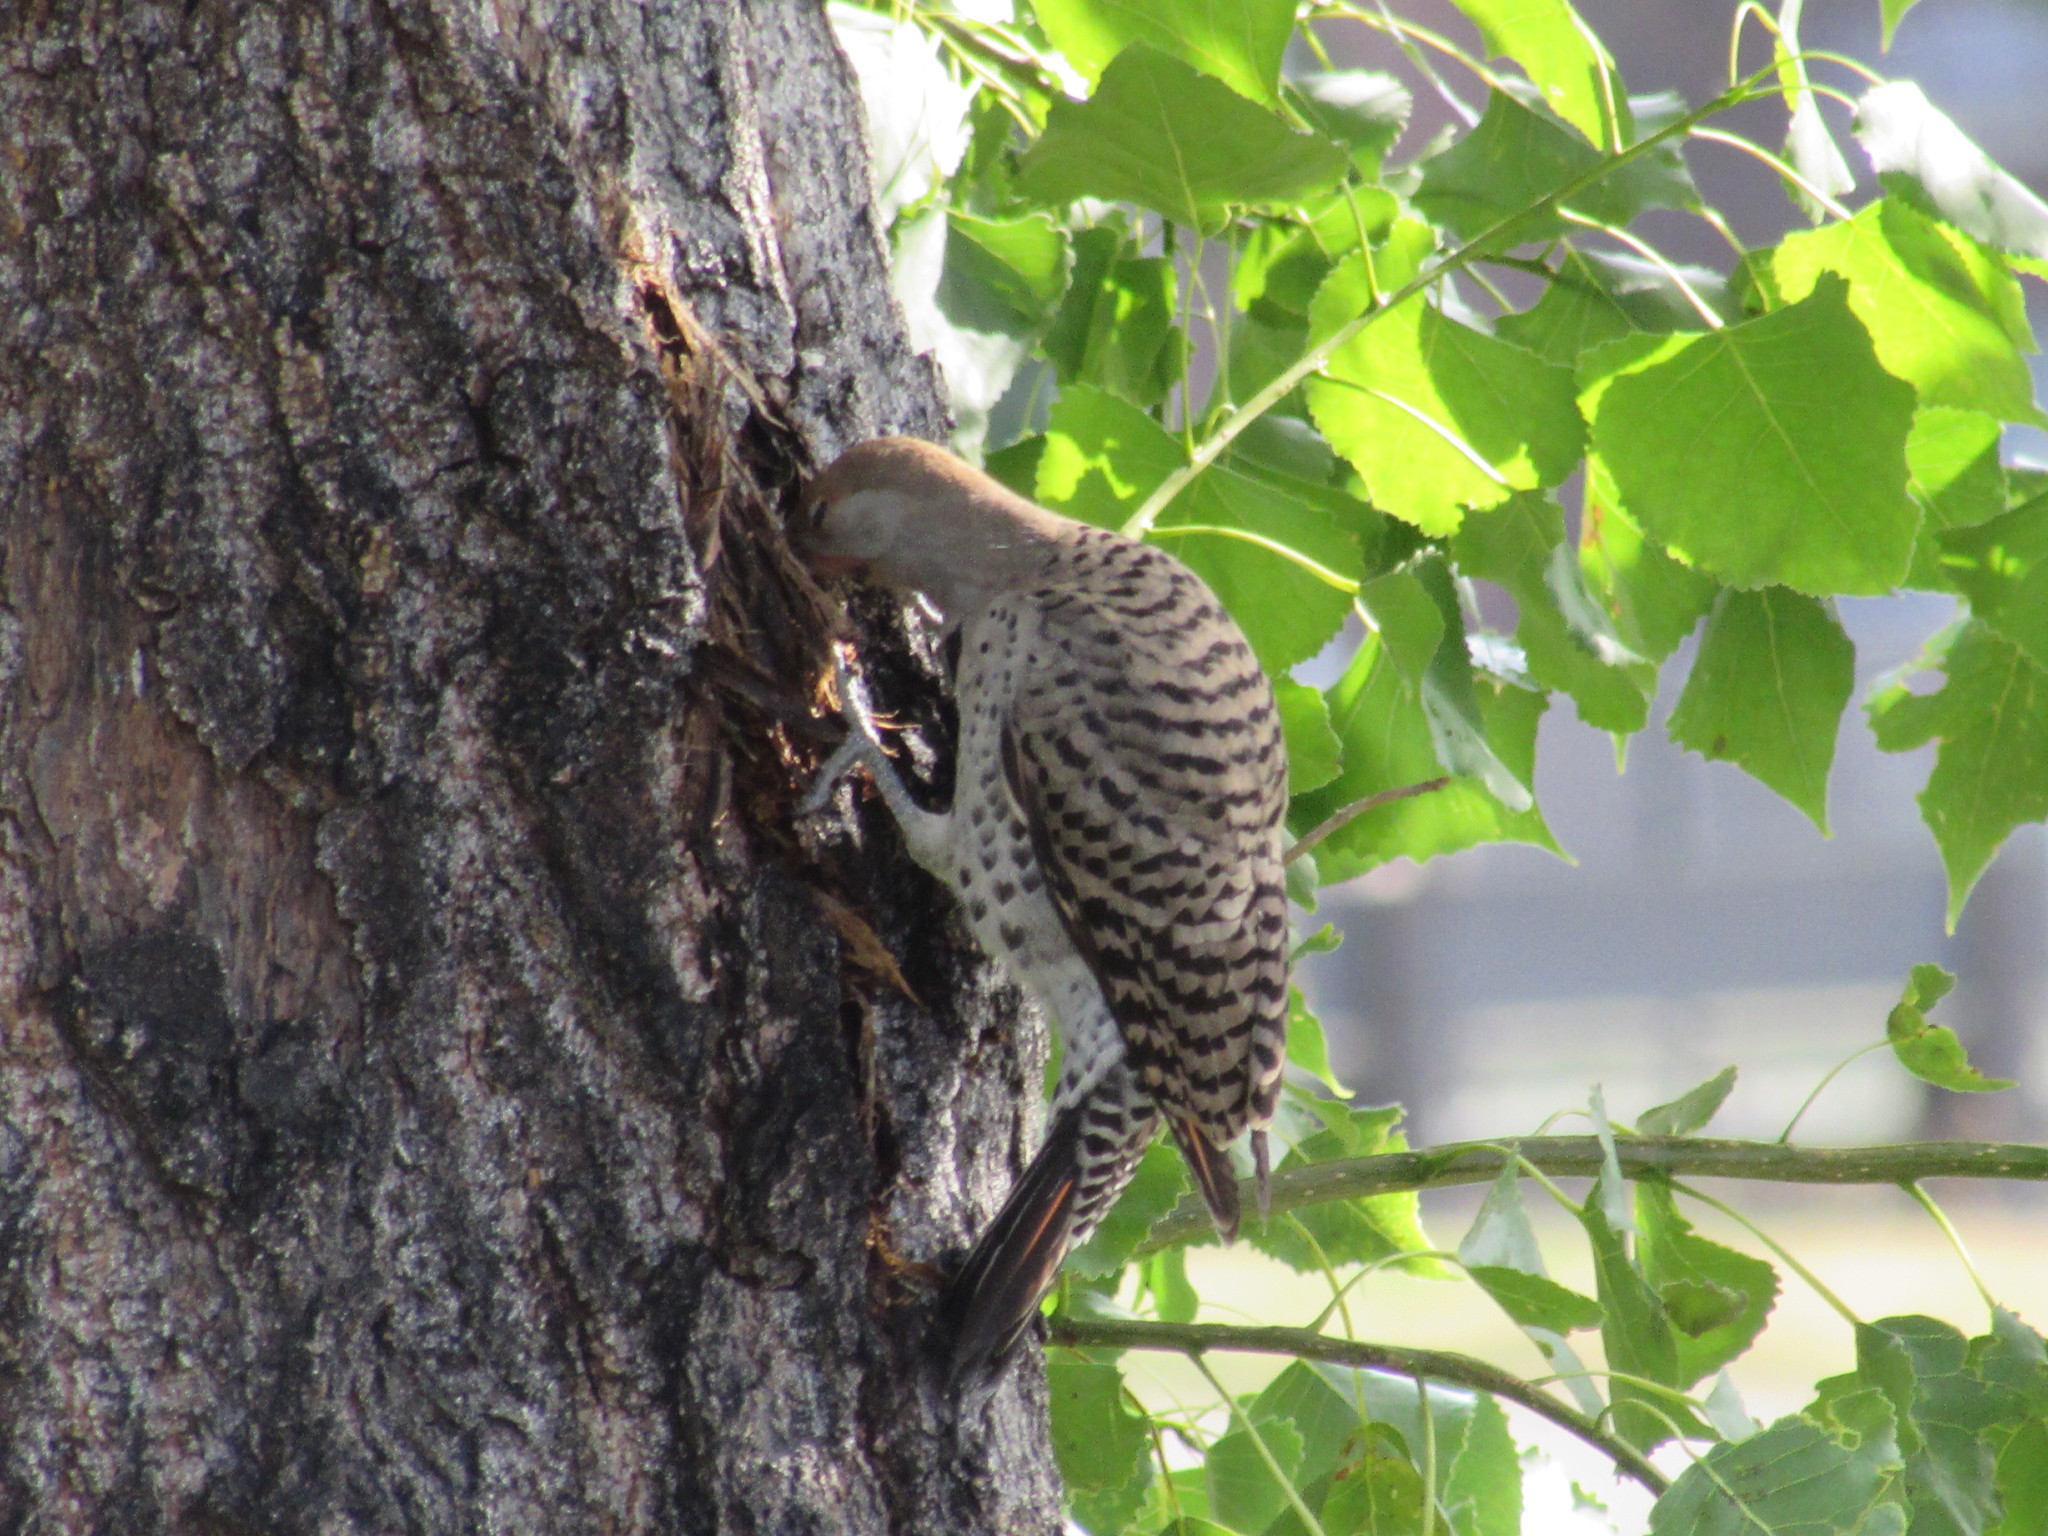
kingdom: Animalia
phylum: Chordata
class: Aves
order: Piciformes
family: Picidae
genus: Colaptes
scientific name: Colaptes auratus
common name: Northern flicker
